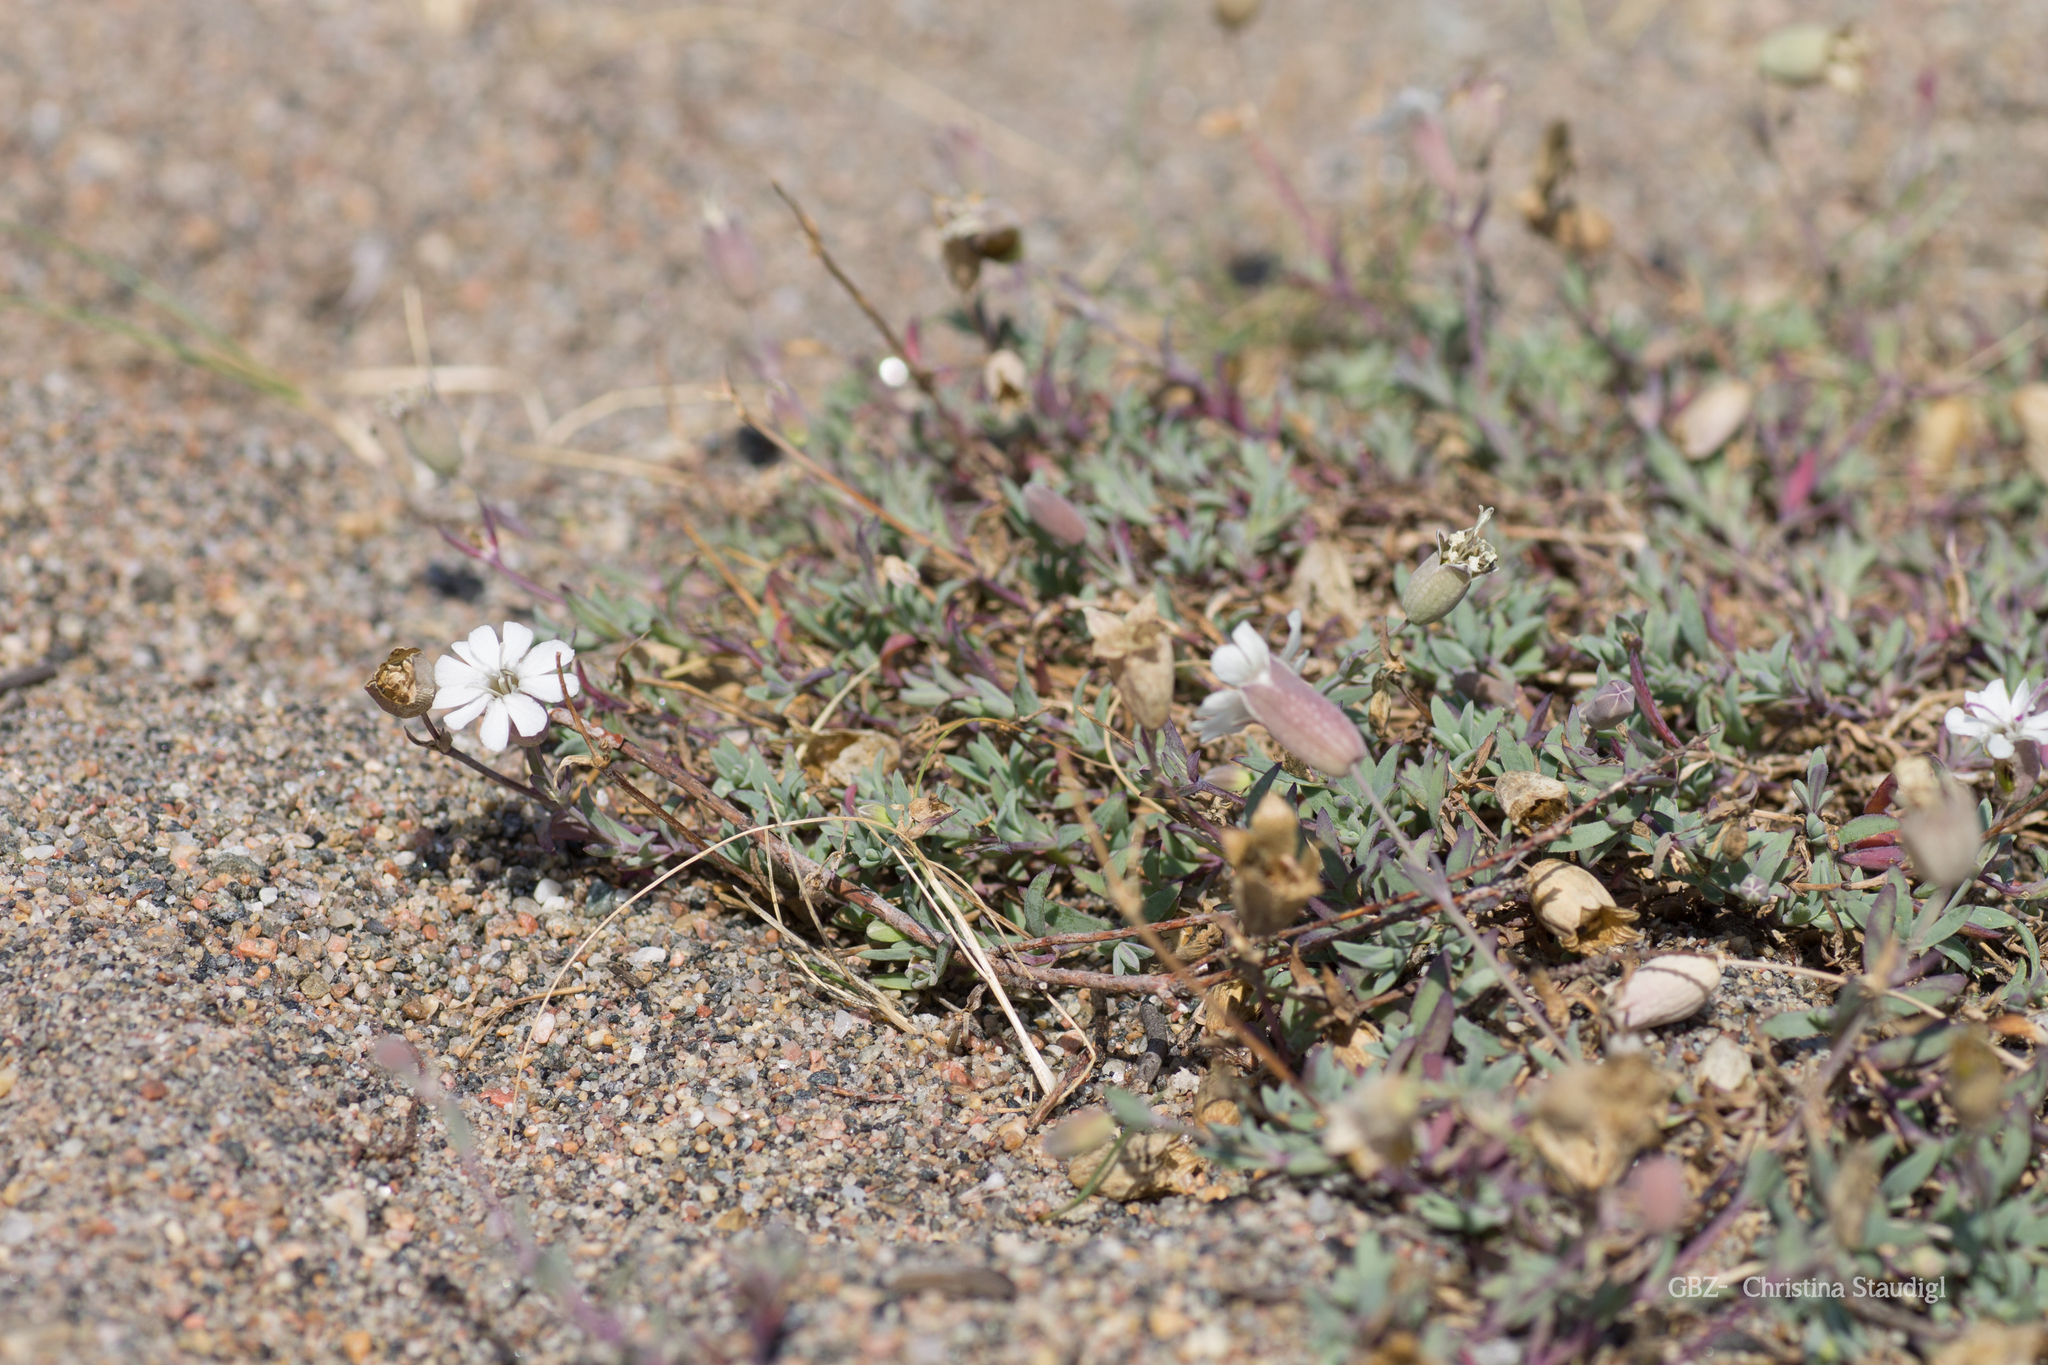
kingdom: Plantae
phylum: Tracheophyta
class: Magnoliopsida
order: Caryophyllales
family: Caryophyllaceae
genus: Silene
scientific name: Silene uniflora
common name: Sea campion
